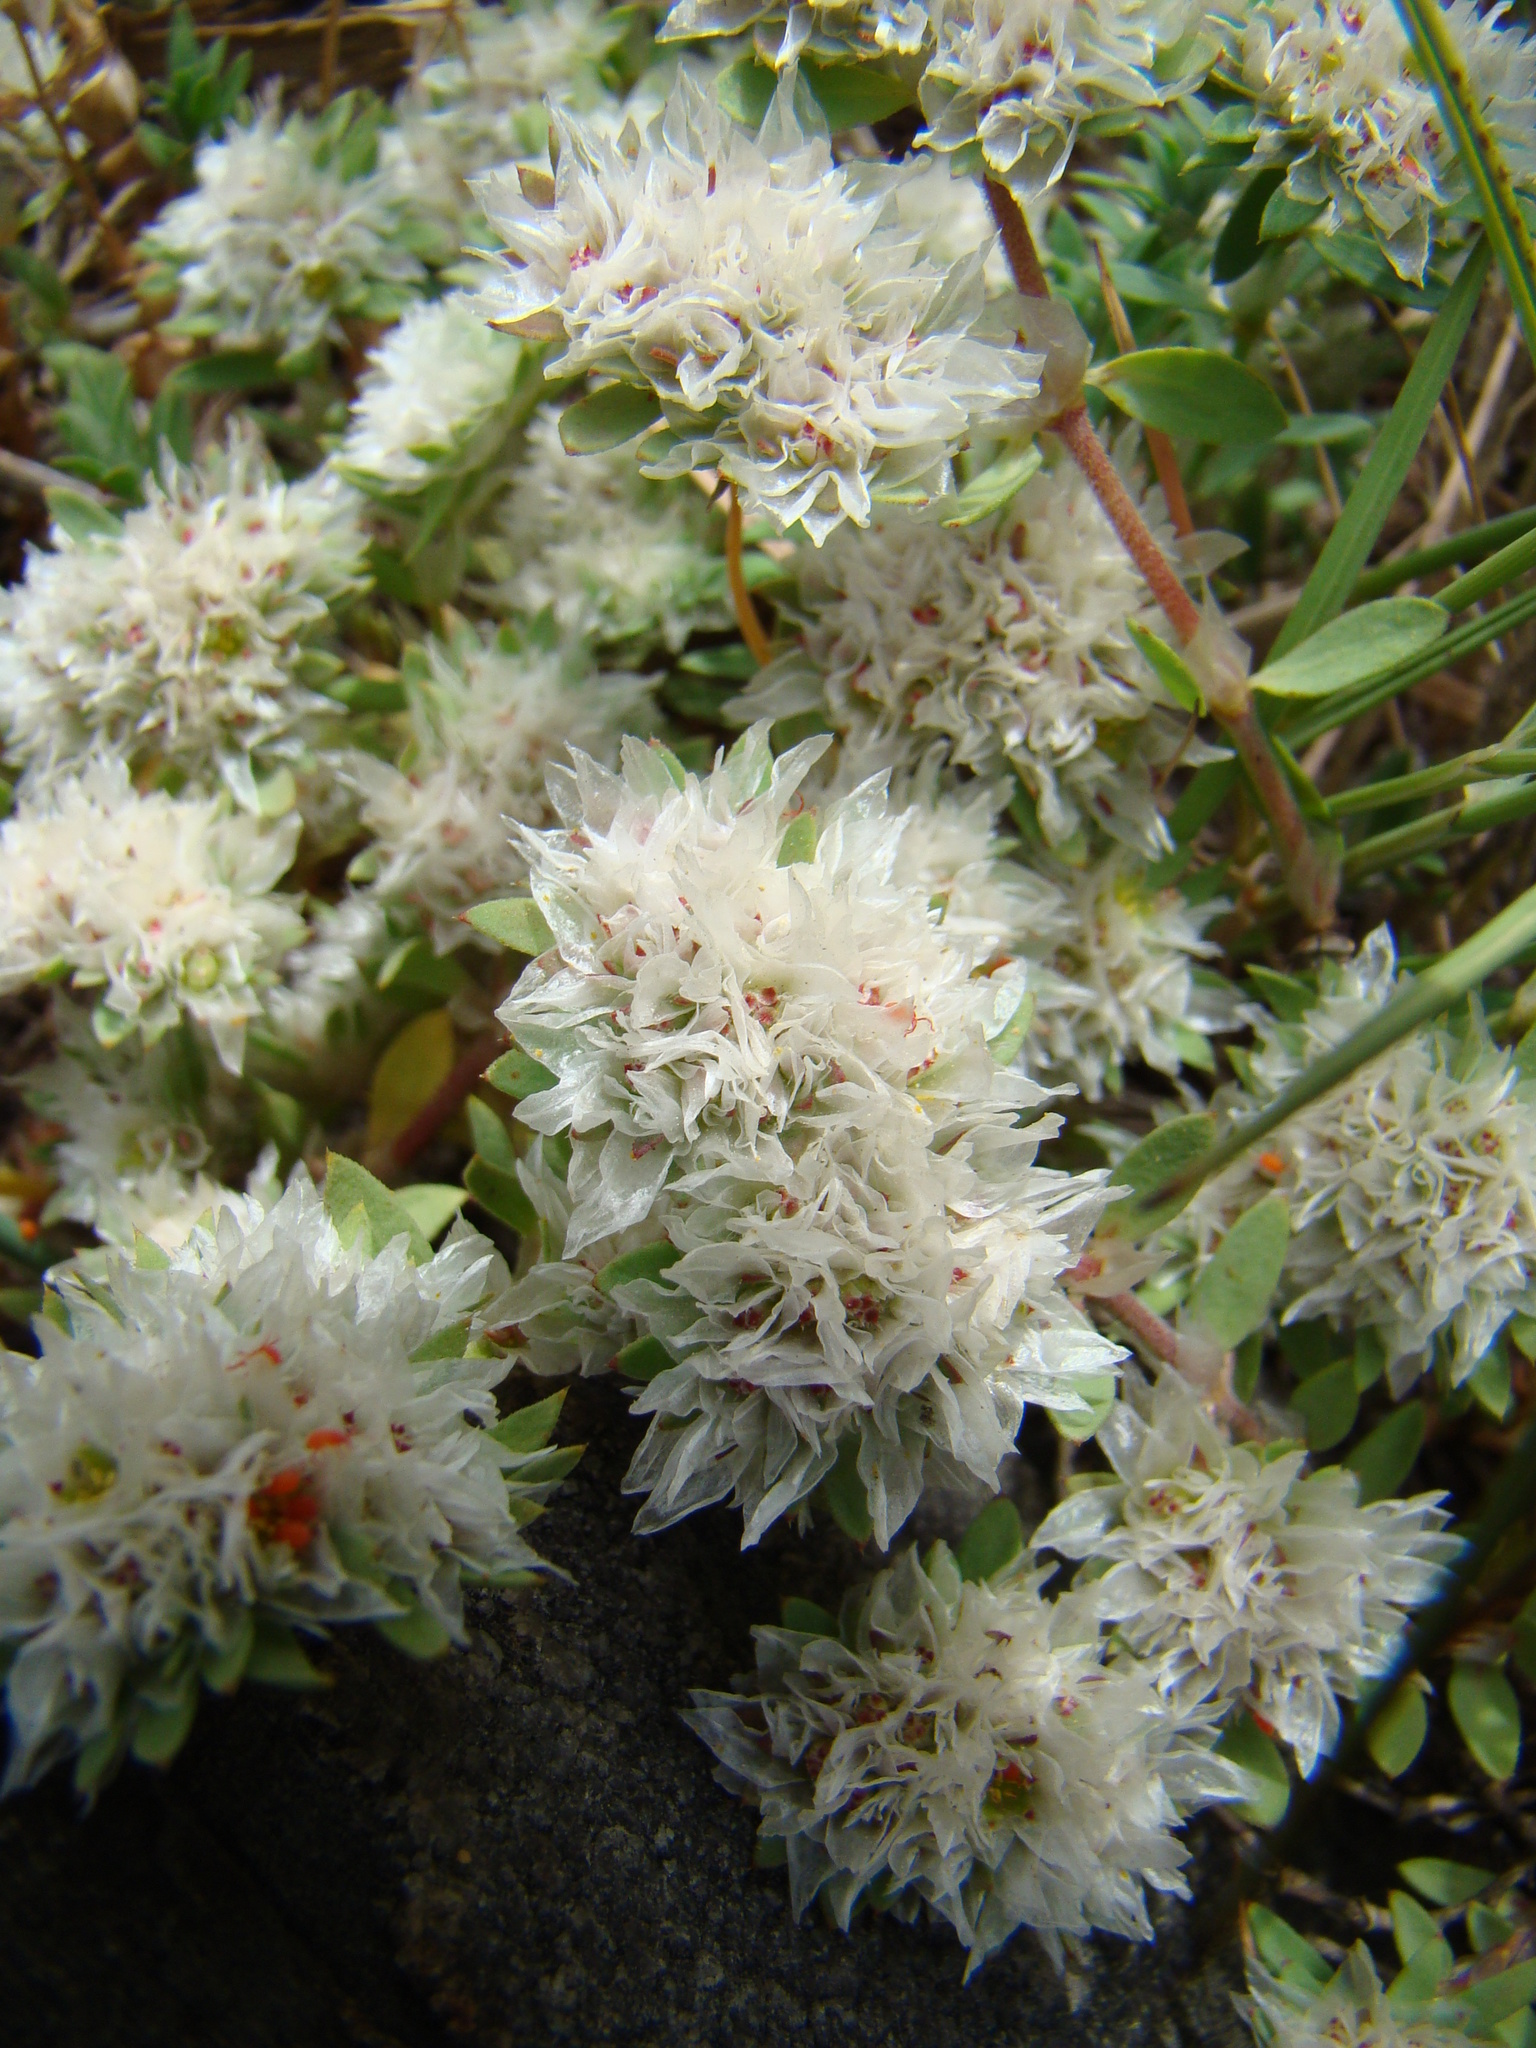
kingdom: Plantae
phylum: Tracheophyta
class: Magnoliopsida
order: Caryophyllales
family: Caryophyllaceae
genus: Paronychia
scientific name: Paronychia argentea
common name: Silver nailroot
